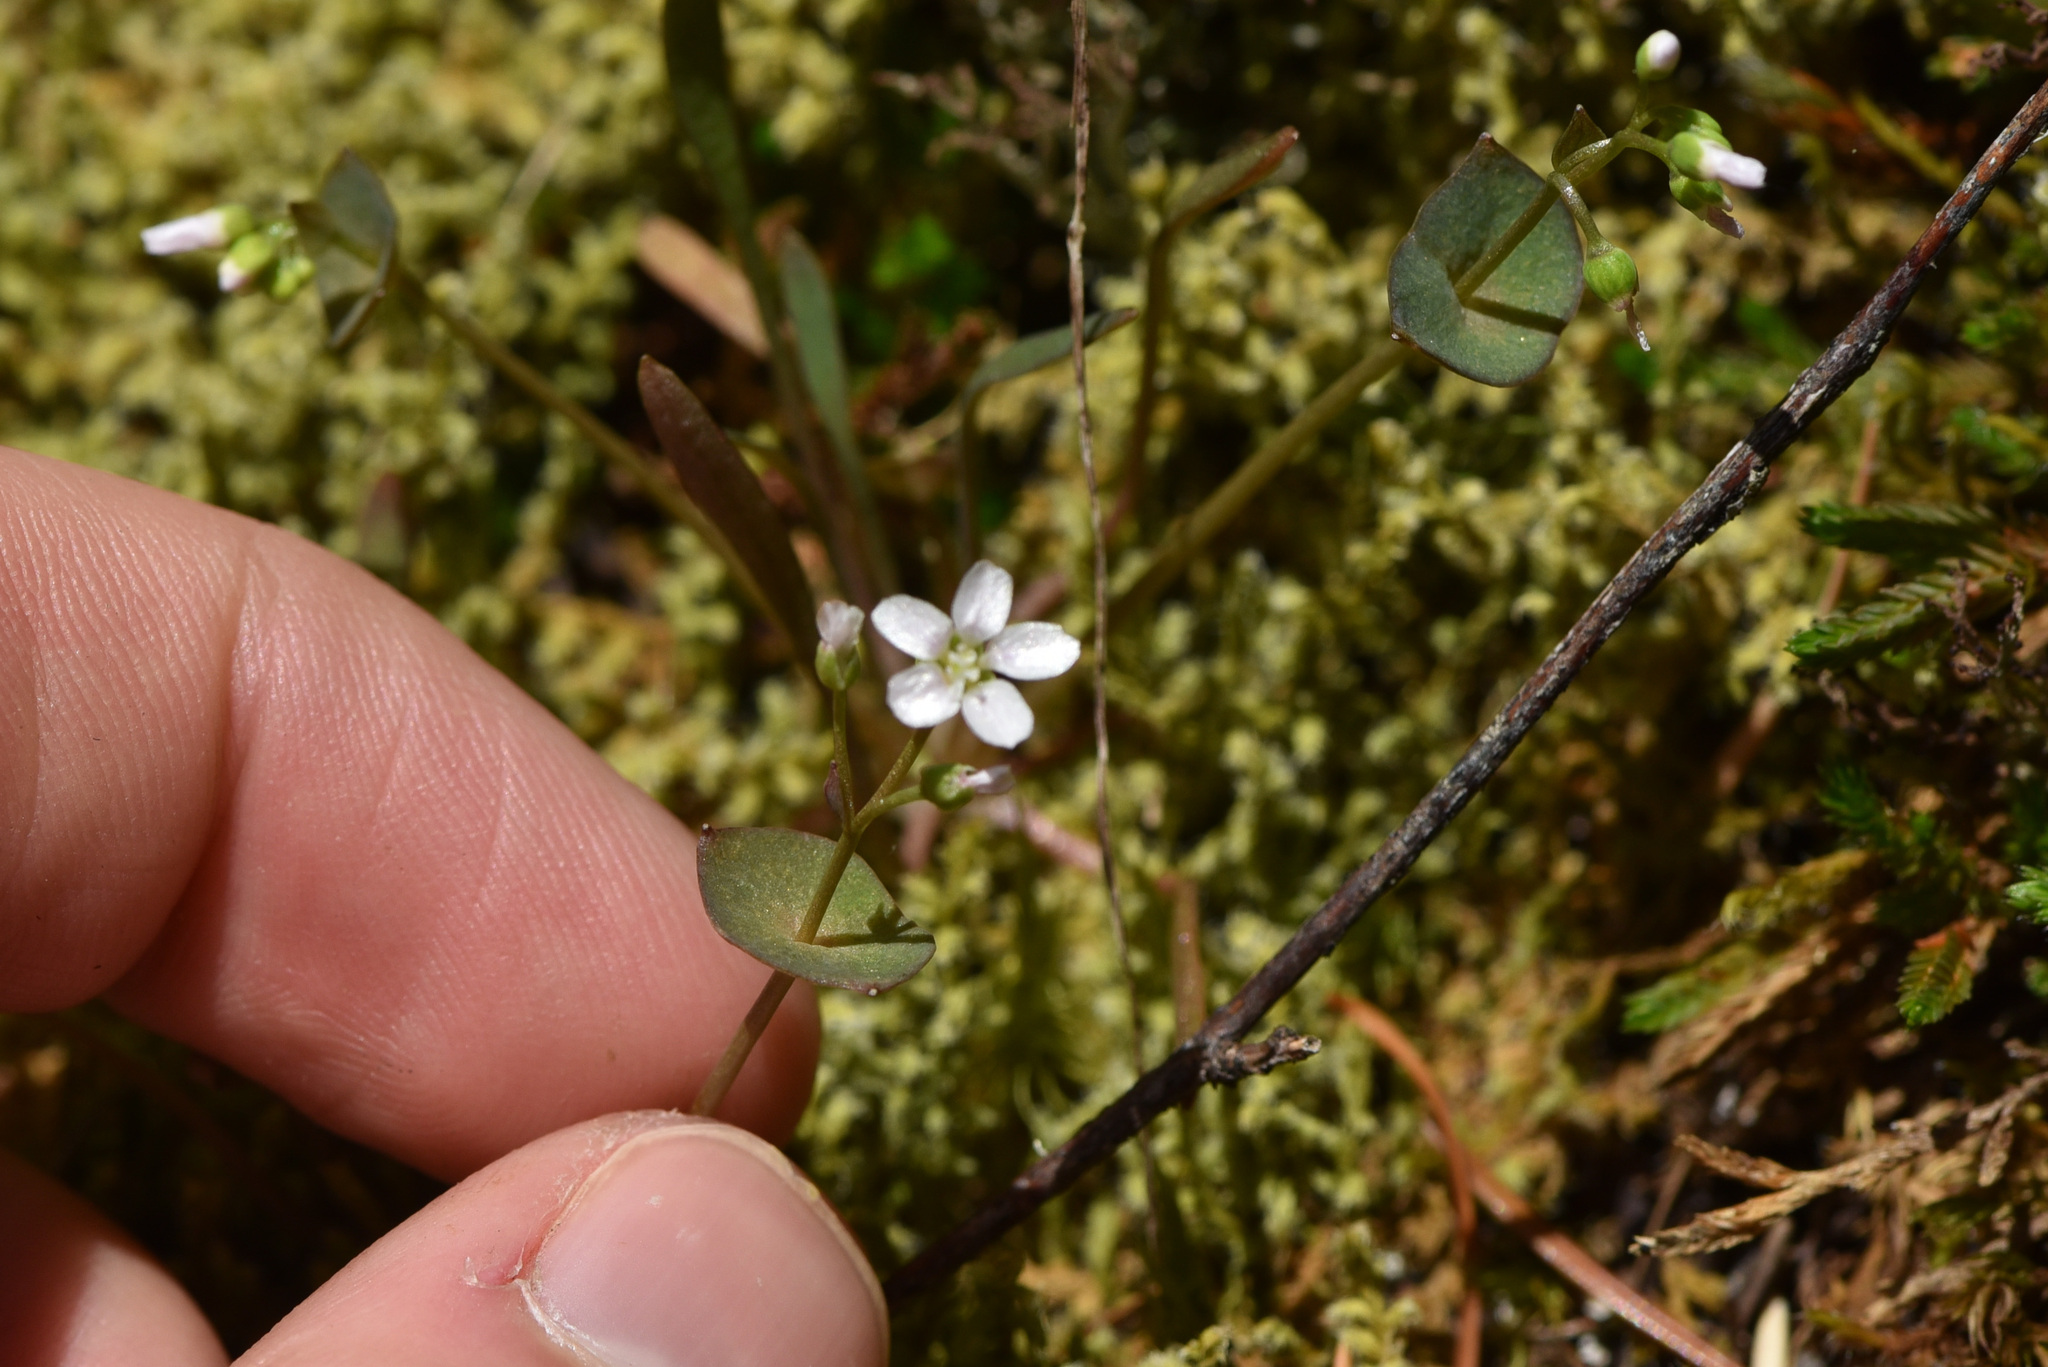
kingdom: Plantae
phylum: Tracheophyta
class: Magnoliopsida
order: Caryophyllales
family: Montiaceae
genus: Claytonia
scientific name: Claytonia parviflora
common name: Indian-lettuce
